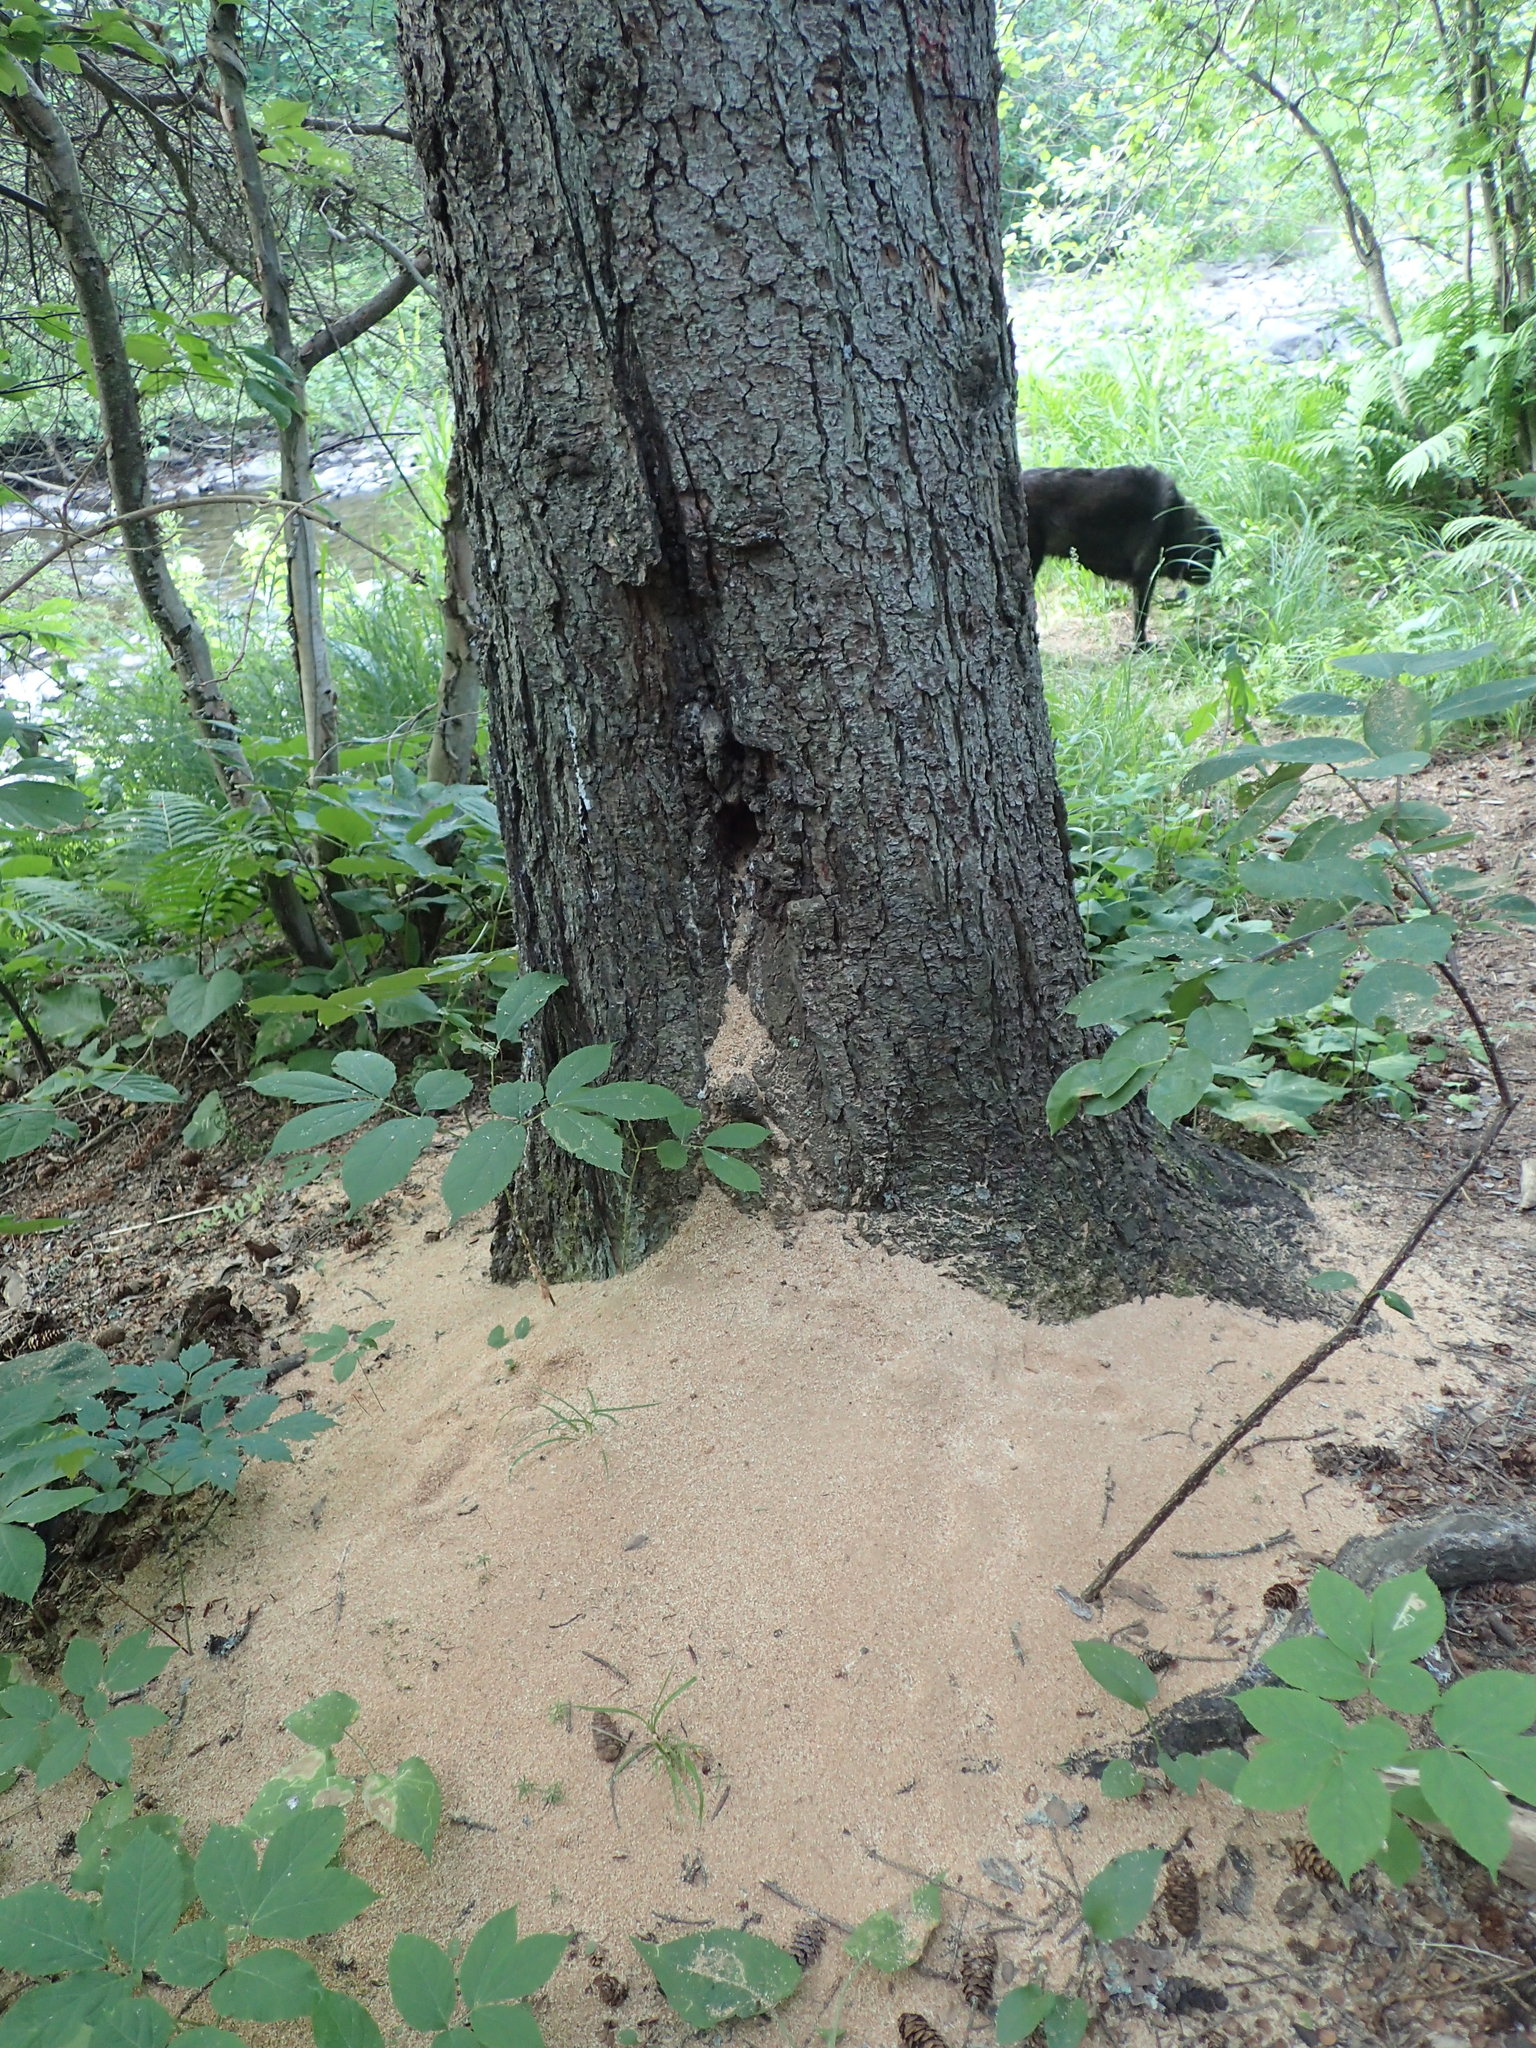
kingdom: Animalia
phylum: Arthropoda
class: Insecta
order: Hymenoptera
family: Formicidae
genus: Camponotus
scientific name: Camponotus pennsylvanicus
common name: Black carpenter ant
